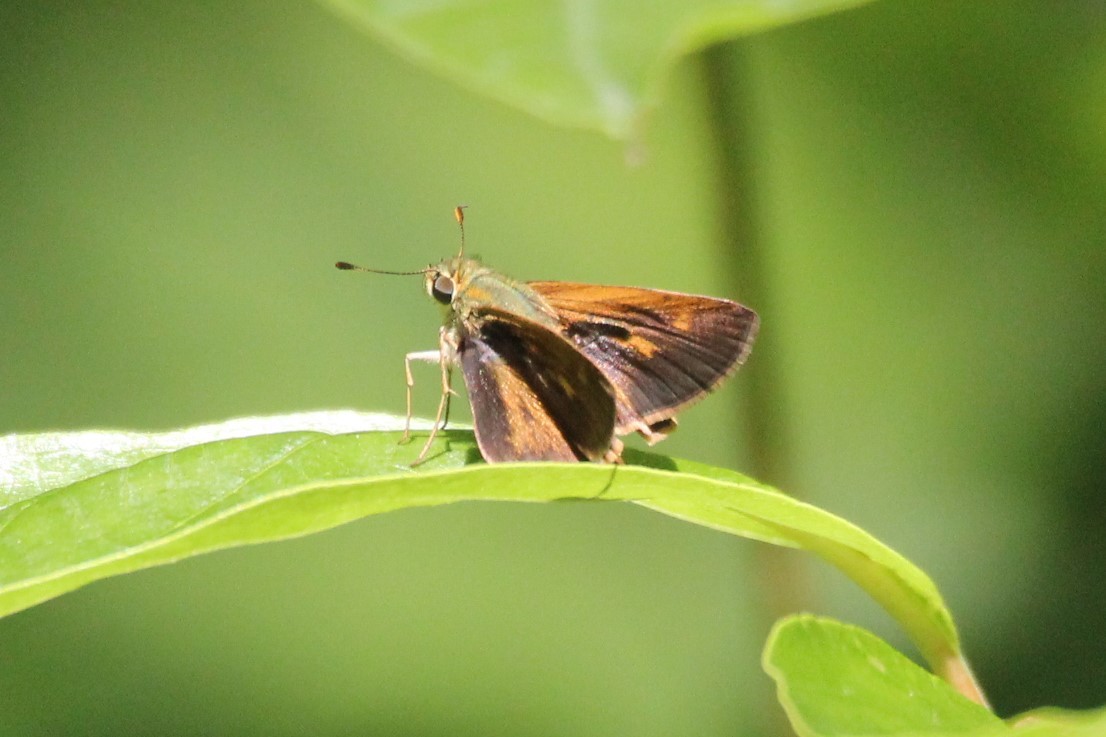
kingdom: Animalia
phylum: Arthropoda
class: Insecta
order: Lepidoptera
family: Hesperiidae
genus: Polites
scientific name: Polites themistocles
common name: Tawny-edged skipper
